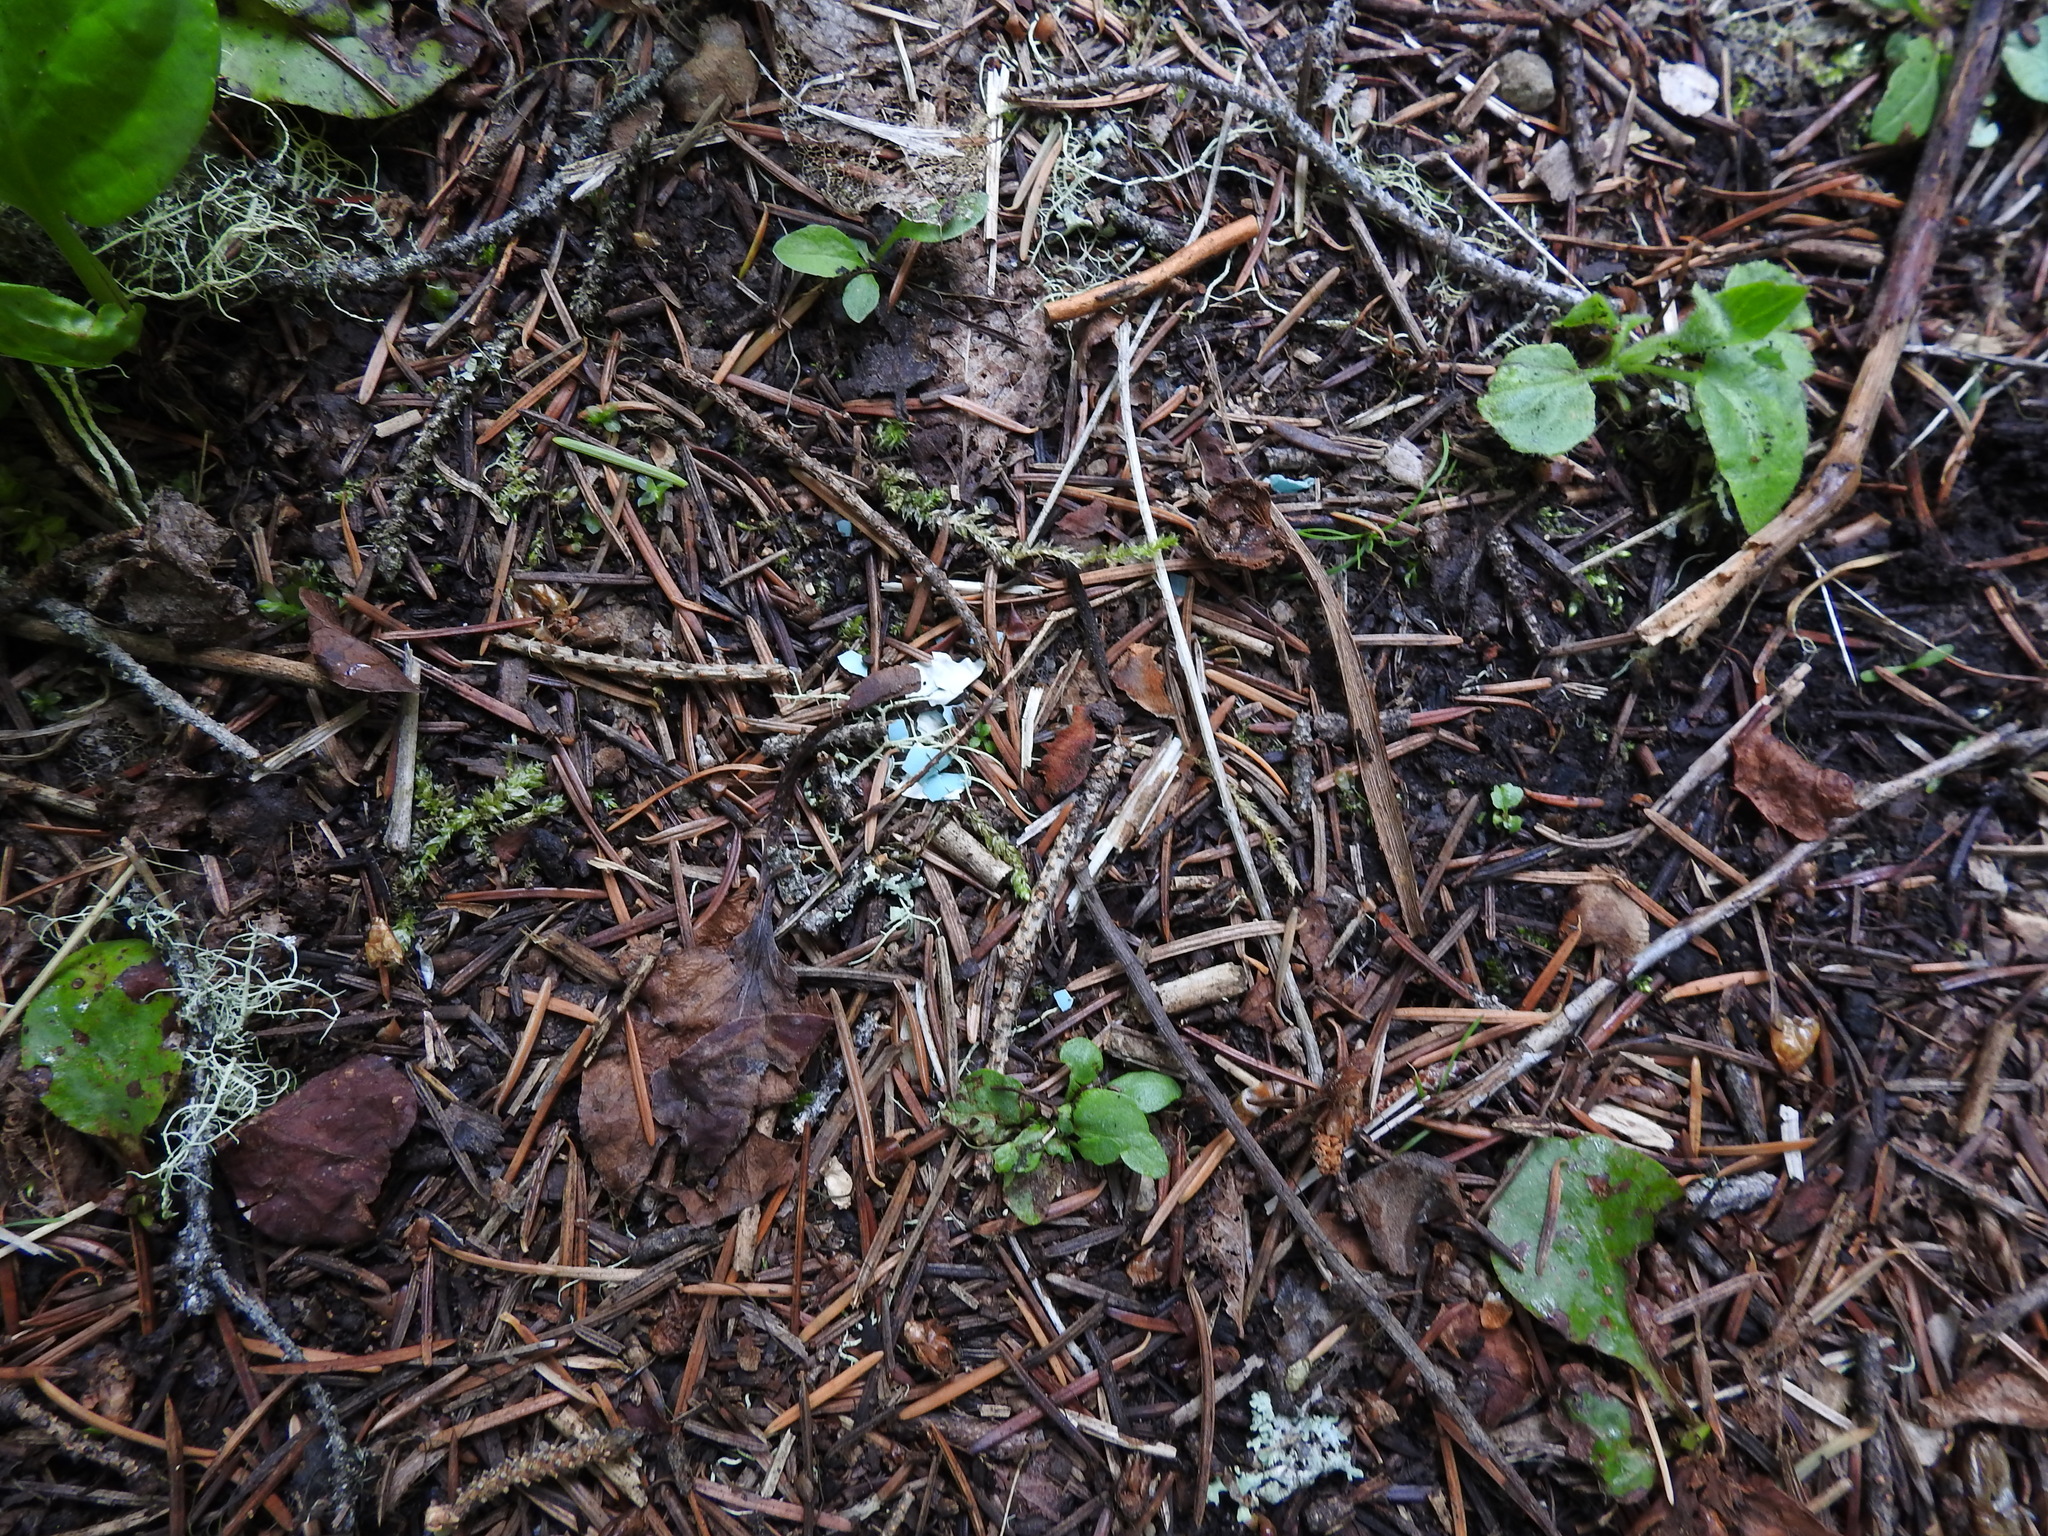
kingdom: Animalia
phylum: Chordata
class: Aves
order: Passeriformes
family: Turdidae
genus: Turdus
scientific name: Turdus migratorius
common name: American robin
